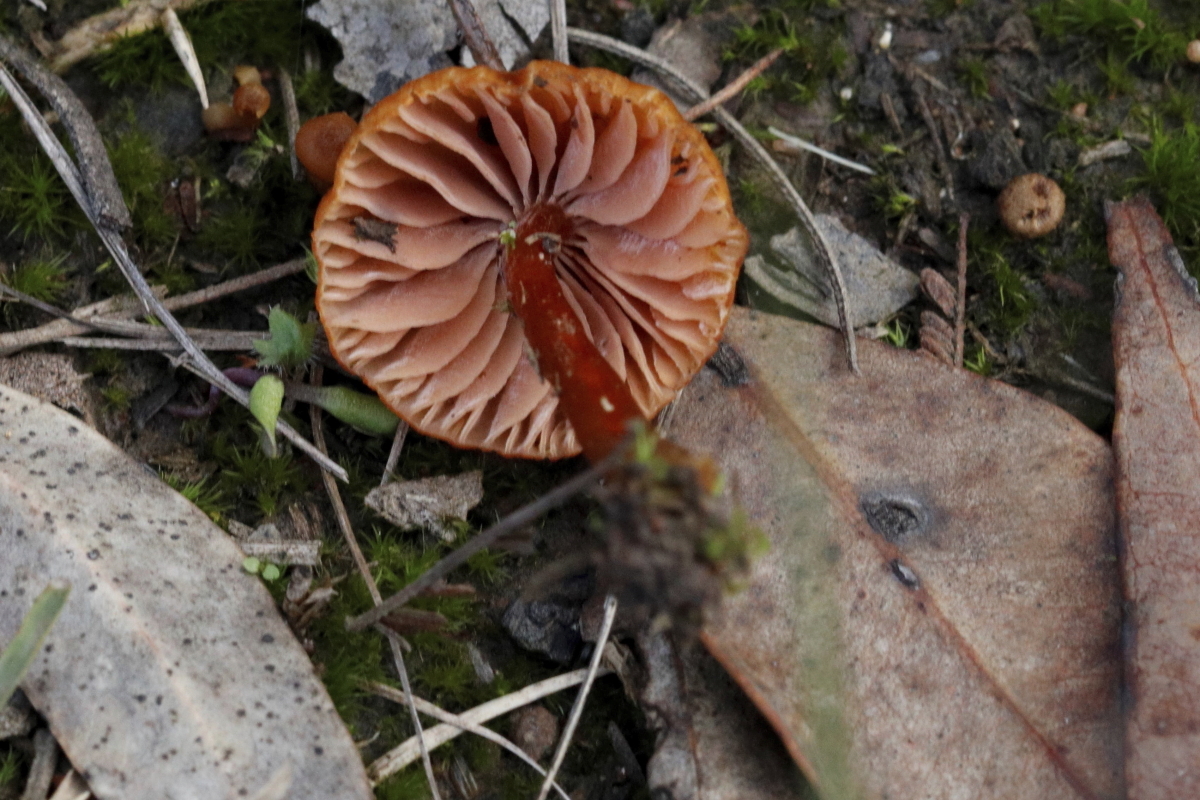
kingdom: Fungi
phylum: Basidiomycota
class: Agaricomycetes
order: Agaricales
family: Hydnangiaceae
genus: Laccaria
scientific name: Laccaria laccata
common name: Deceiver
